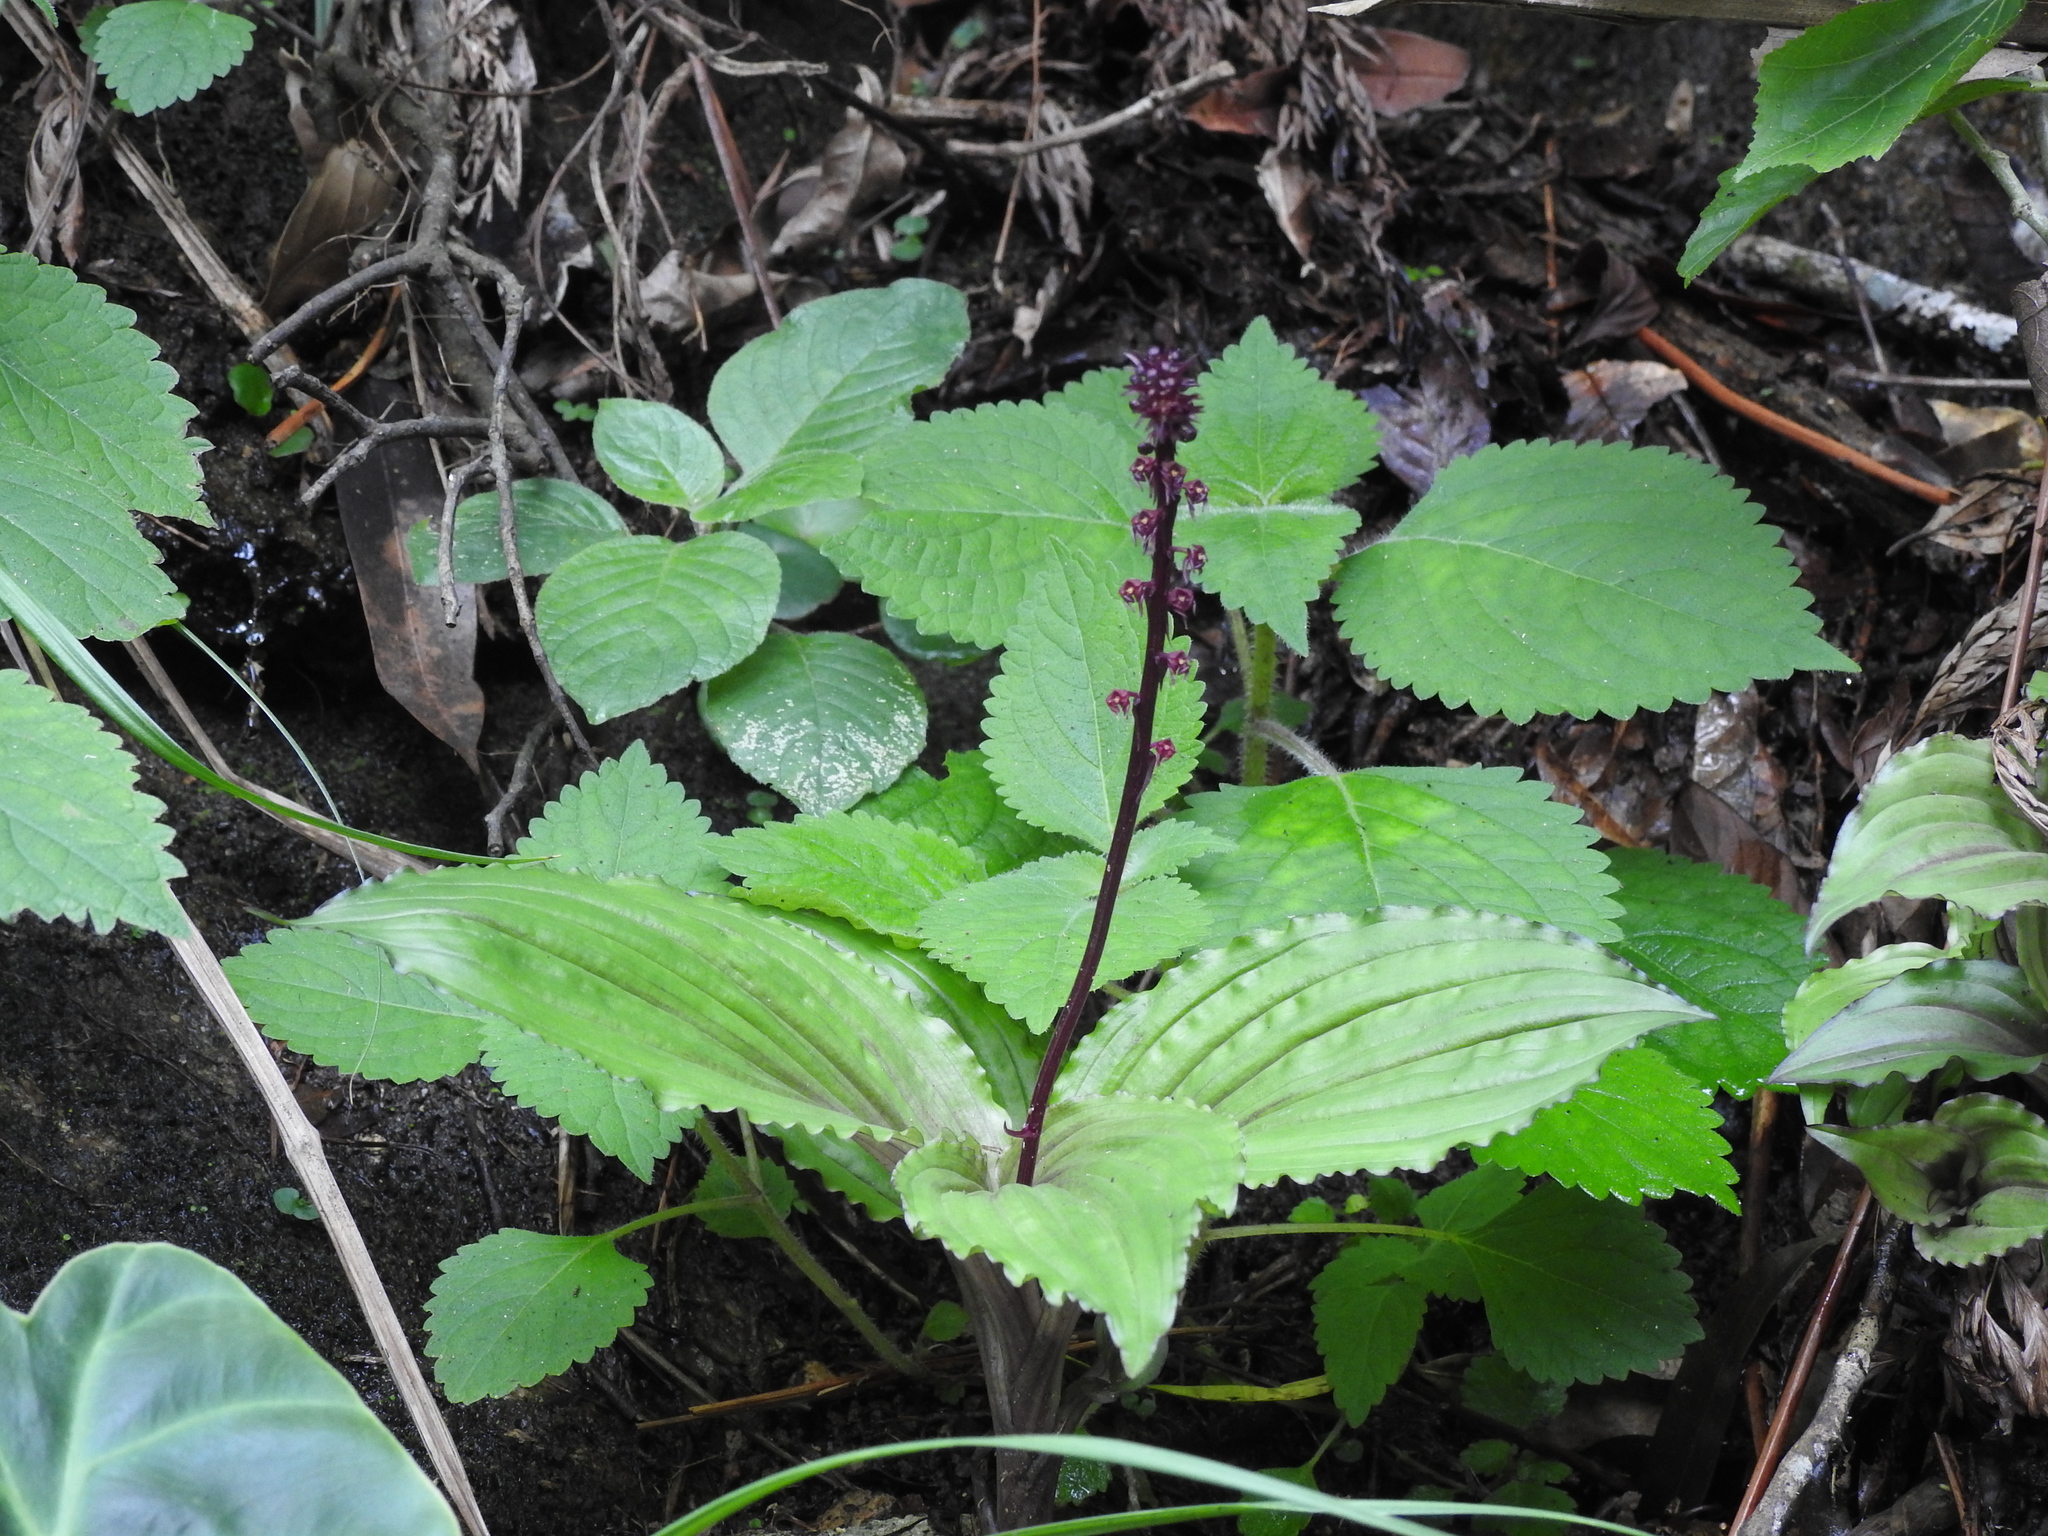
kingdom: Plantae
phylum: Tracheophyta
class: Liliopsida
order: Asparagales
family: Orchidaceae
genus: Malaxis
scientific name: Malaxis versicolor
